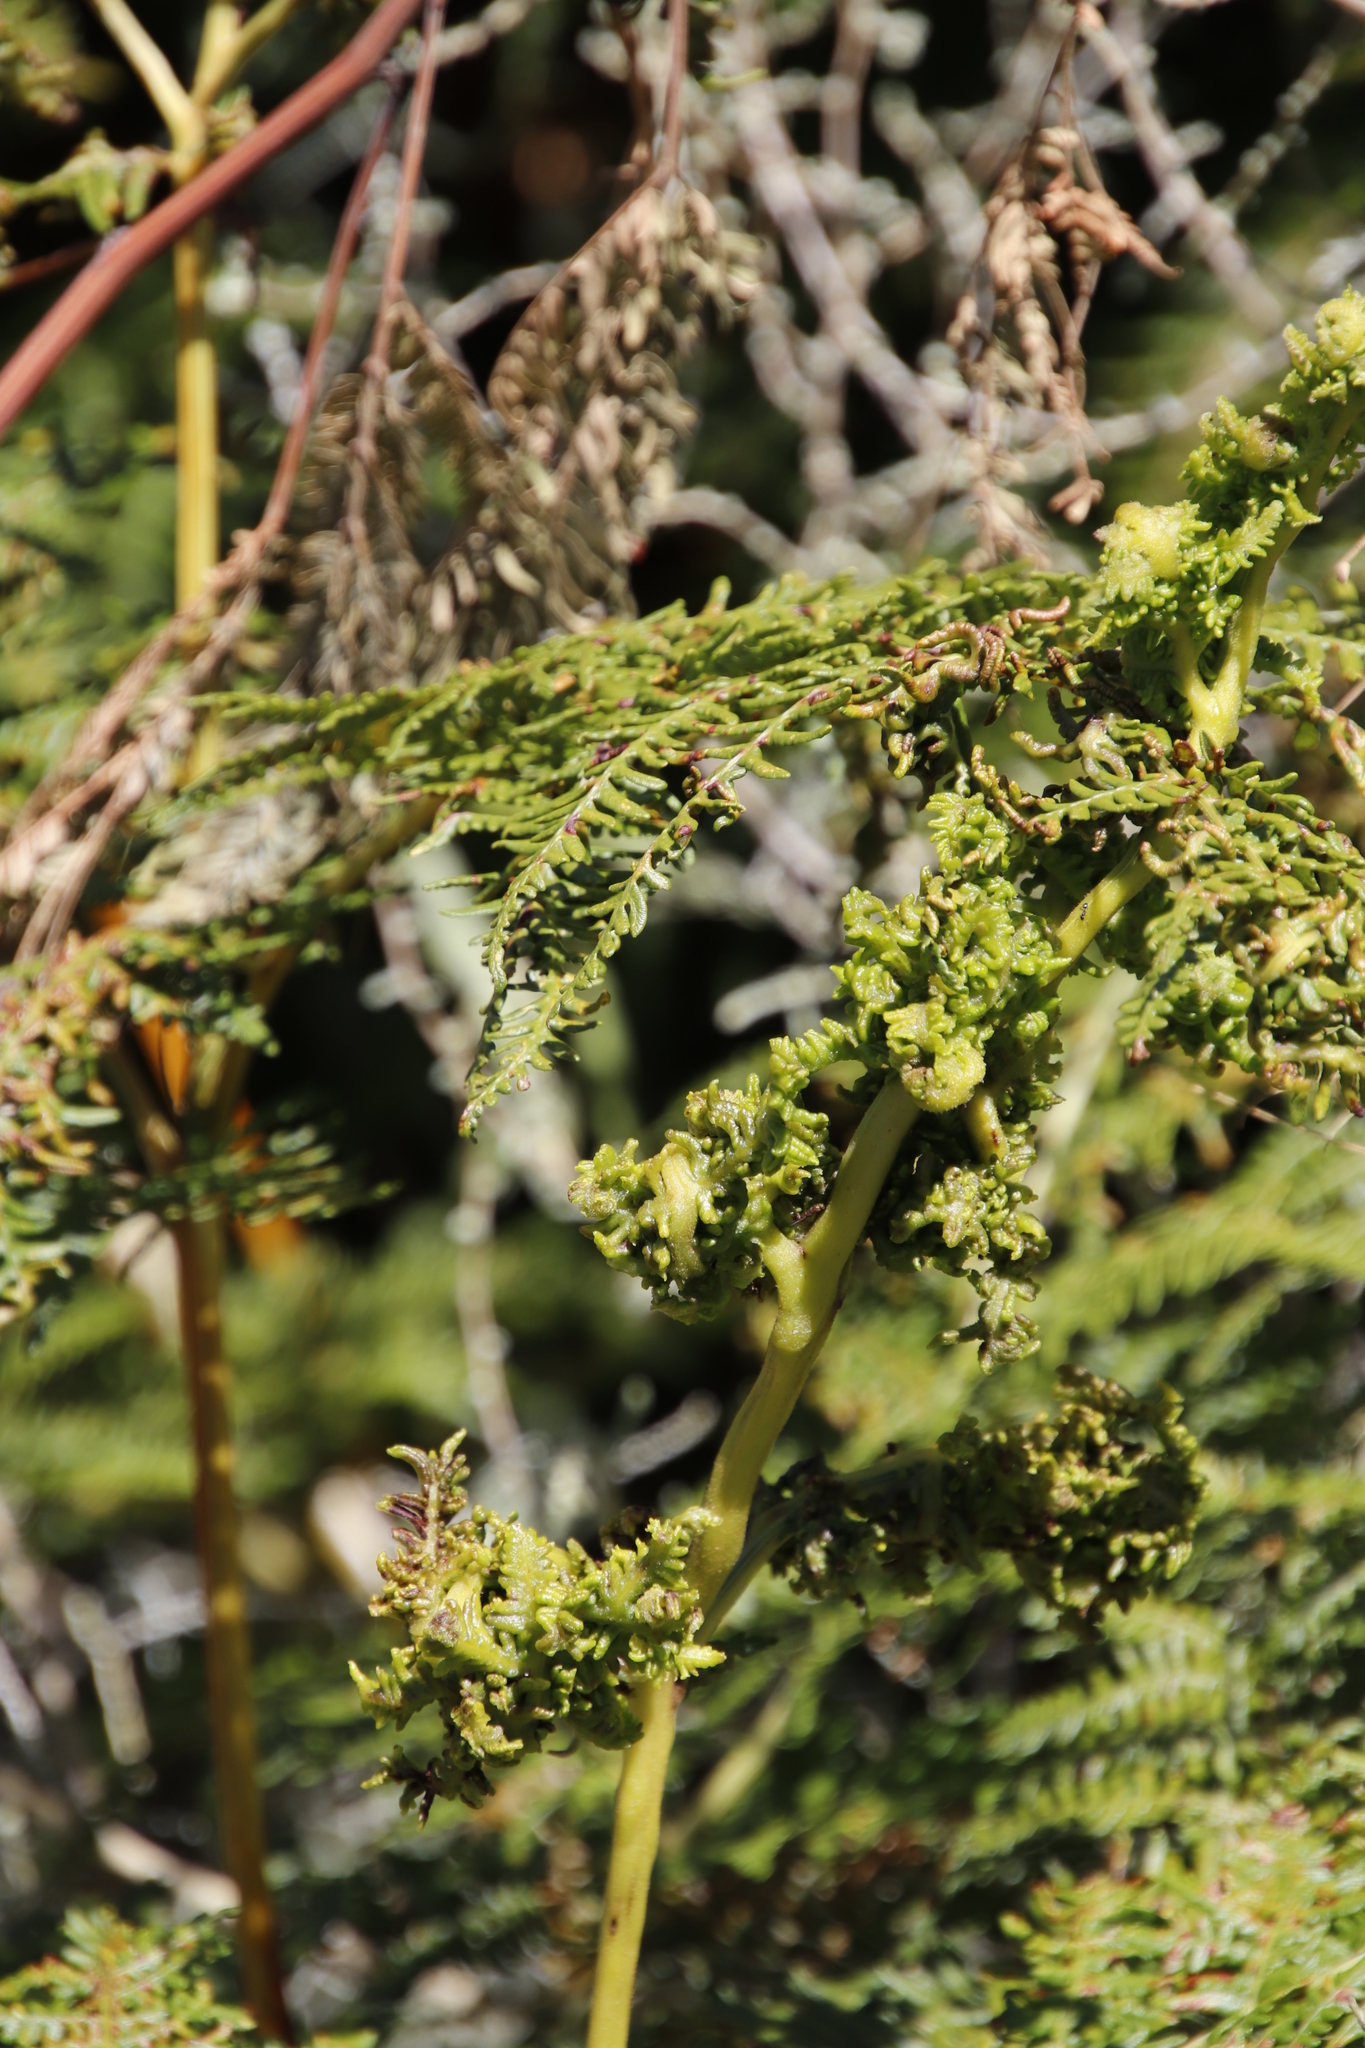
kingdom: Animalia
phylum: Arthropoda
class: Arachnida
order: Trombidiformes
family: Eriophyidae
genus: Eriophyes
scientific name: Eriophyes
